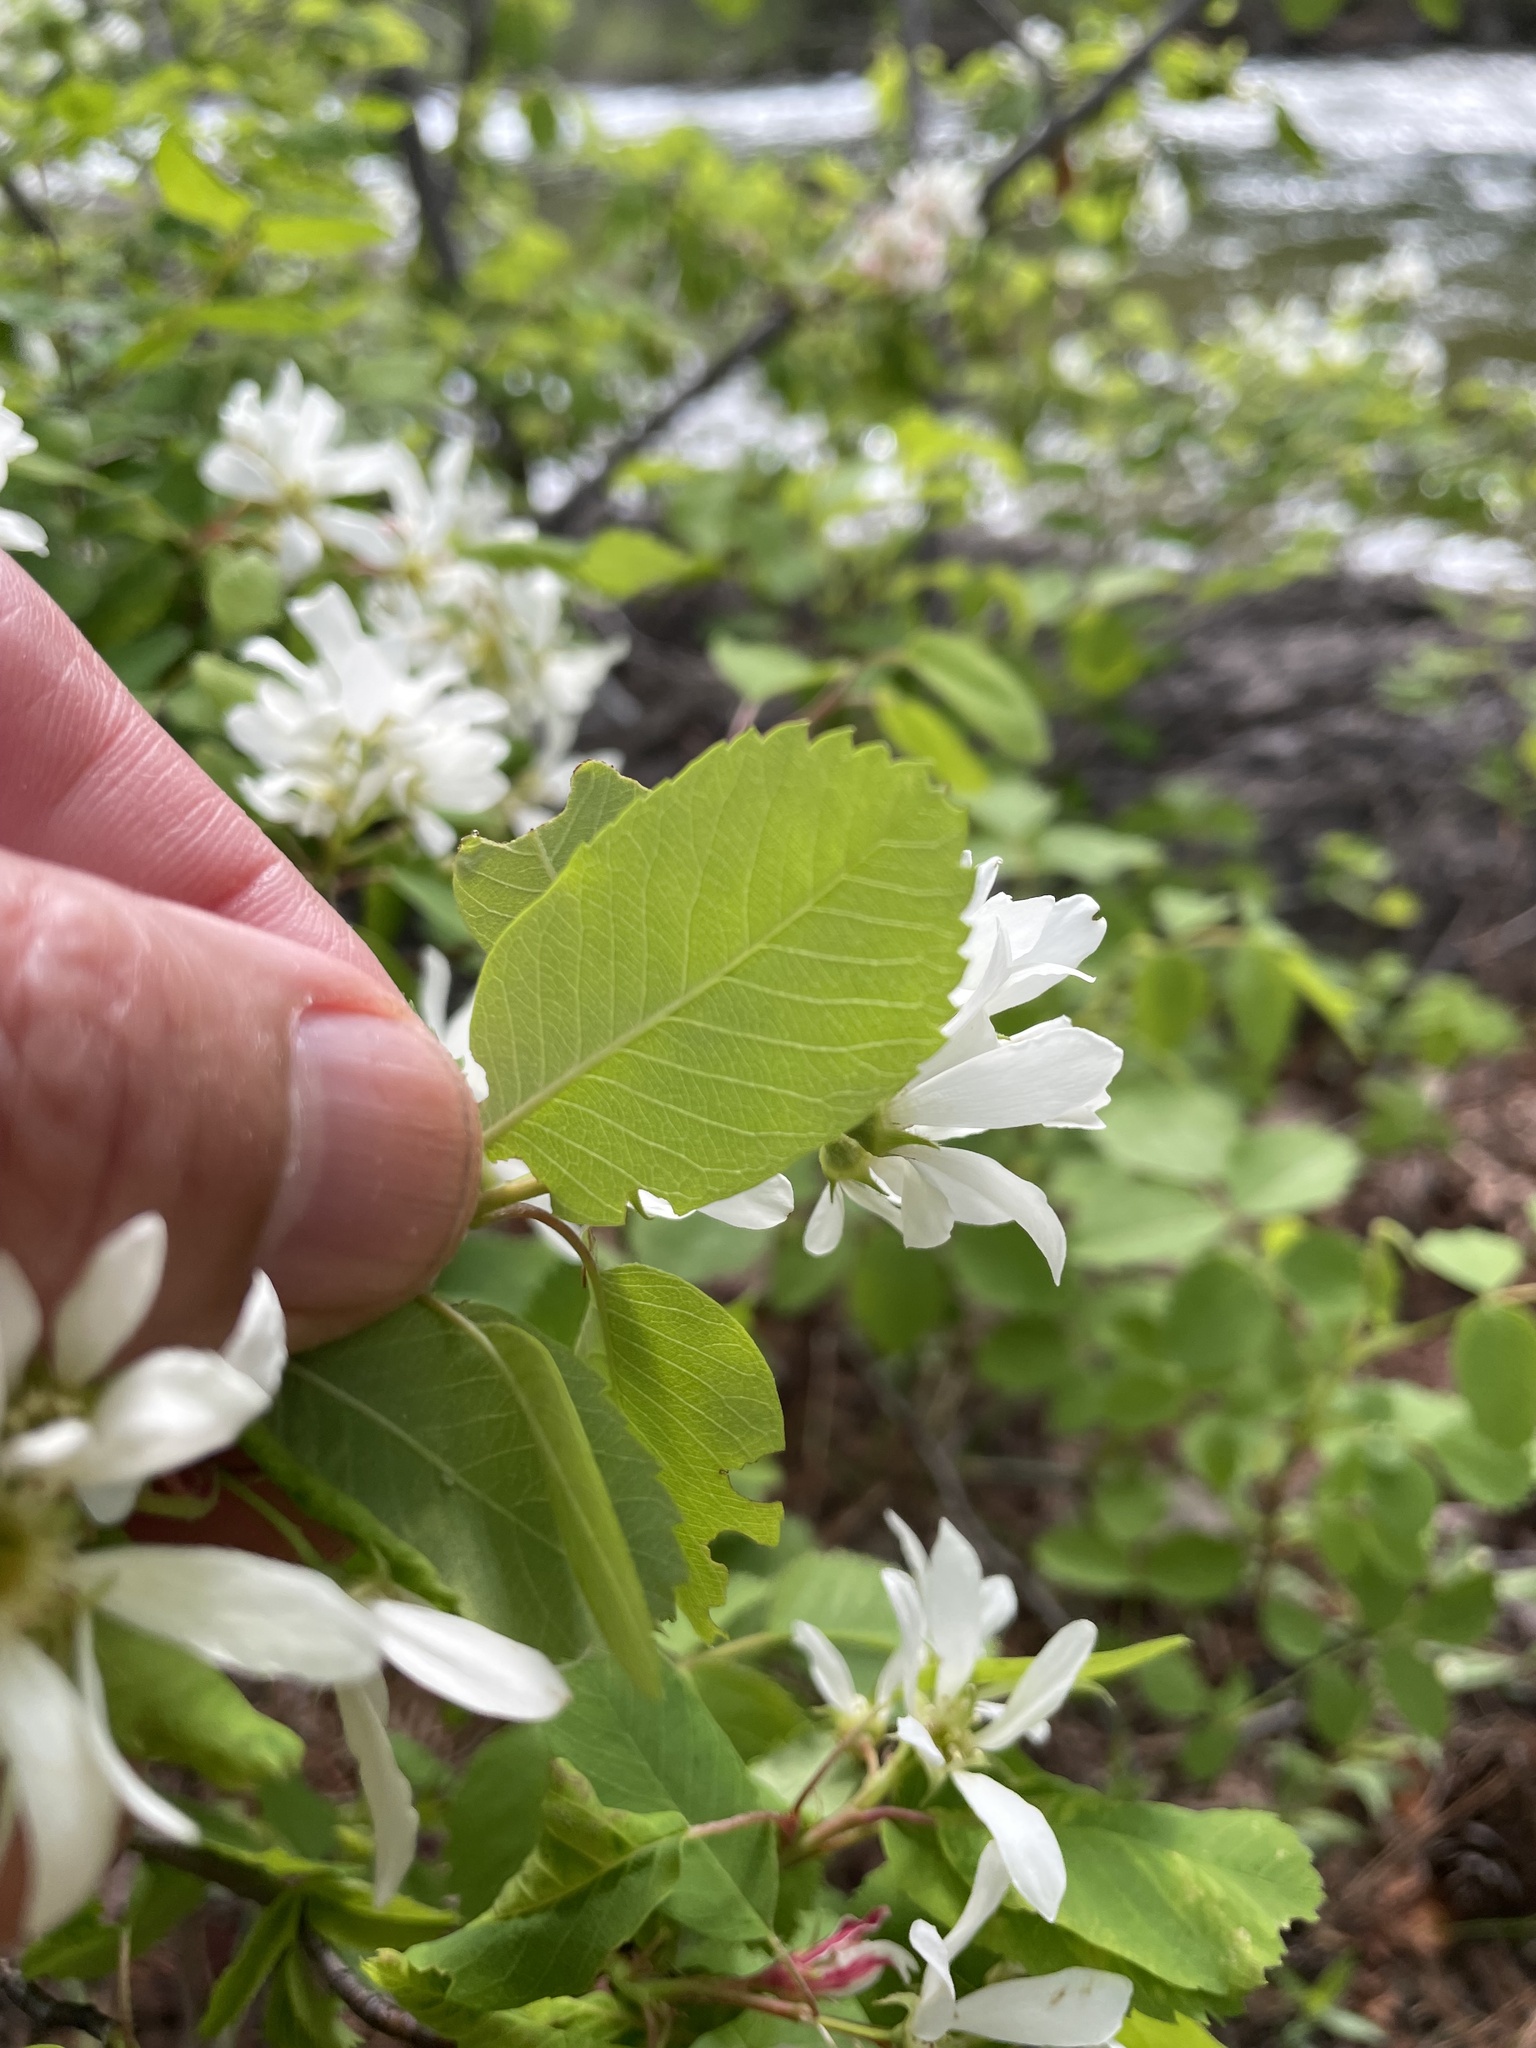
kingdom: Plantae
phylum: Tracheophyta
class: Magnoliopsida
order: Rosales
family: Rosaceae
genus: Amelanchier
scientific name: Amelanchier alnifolia
